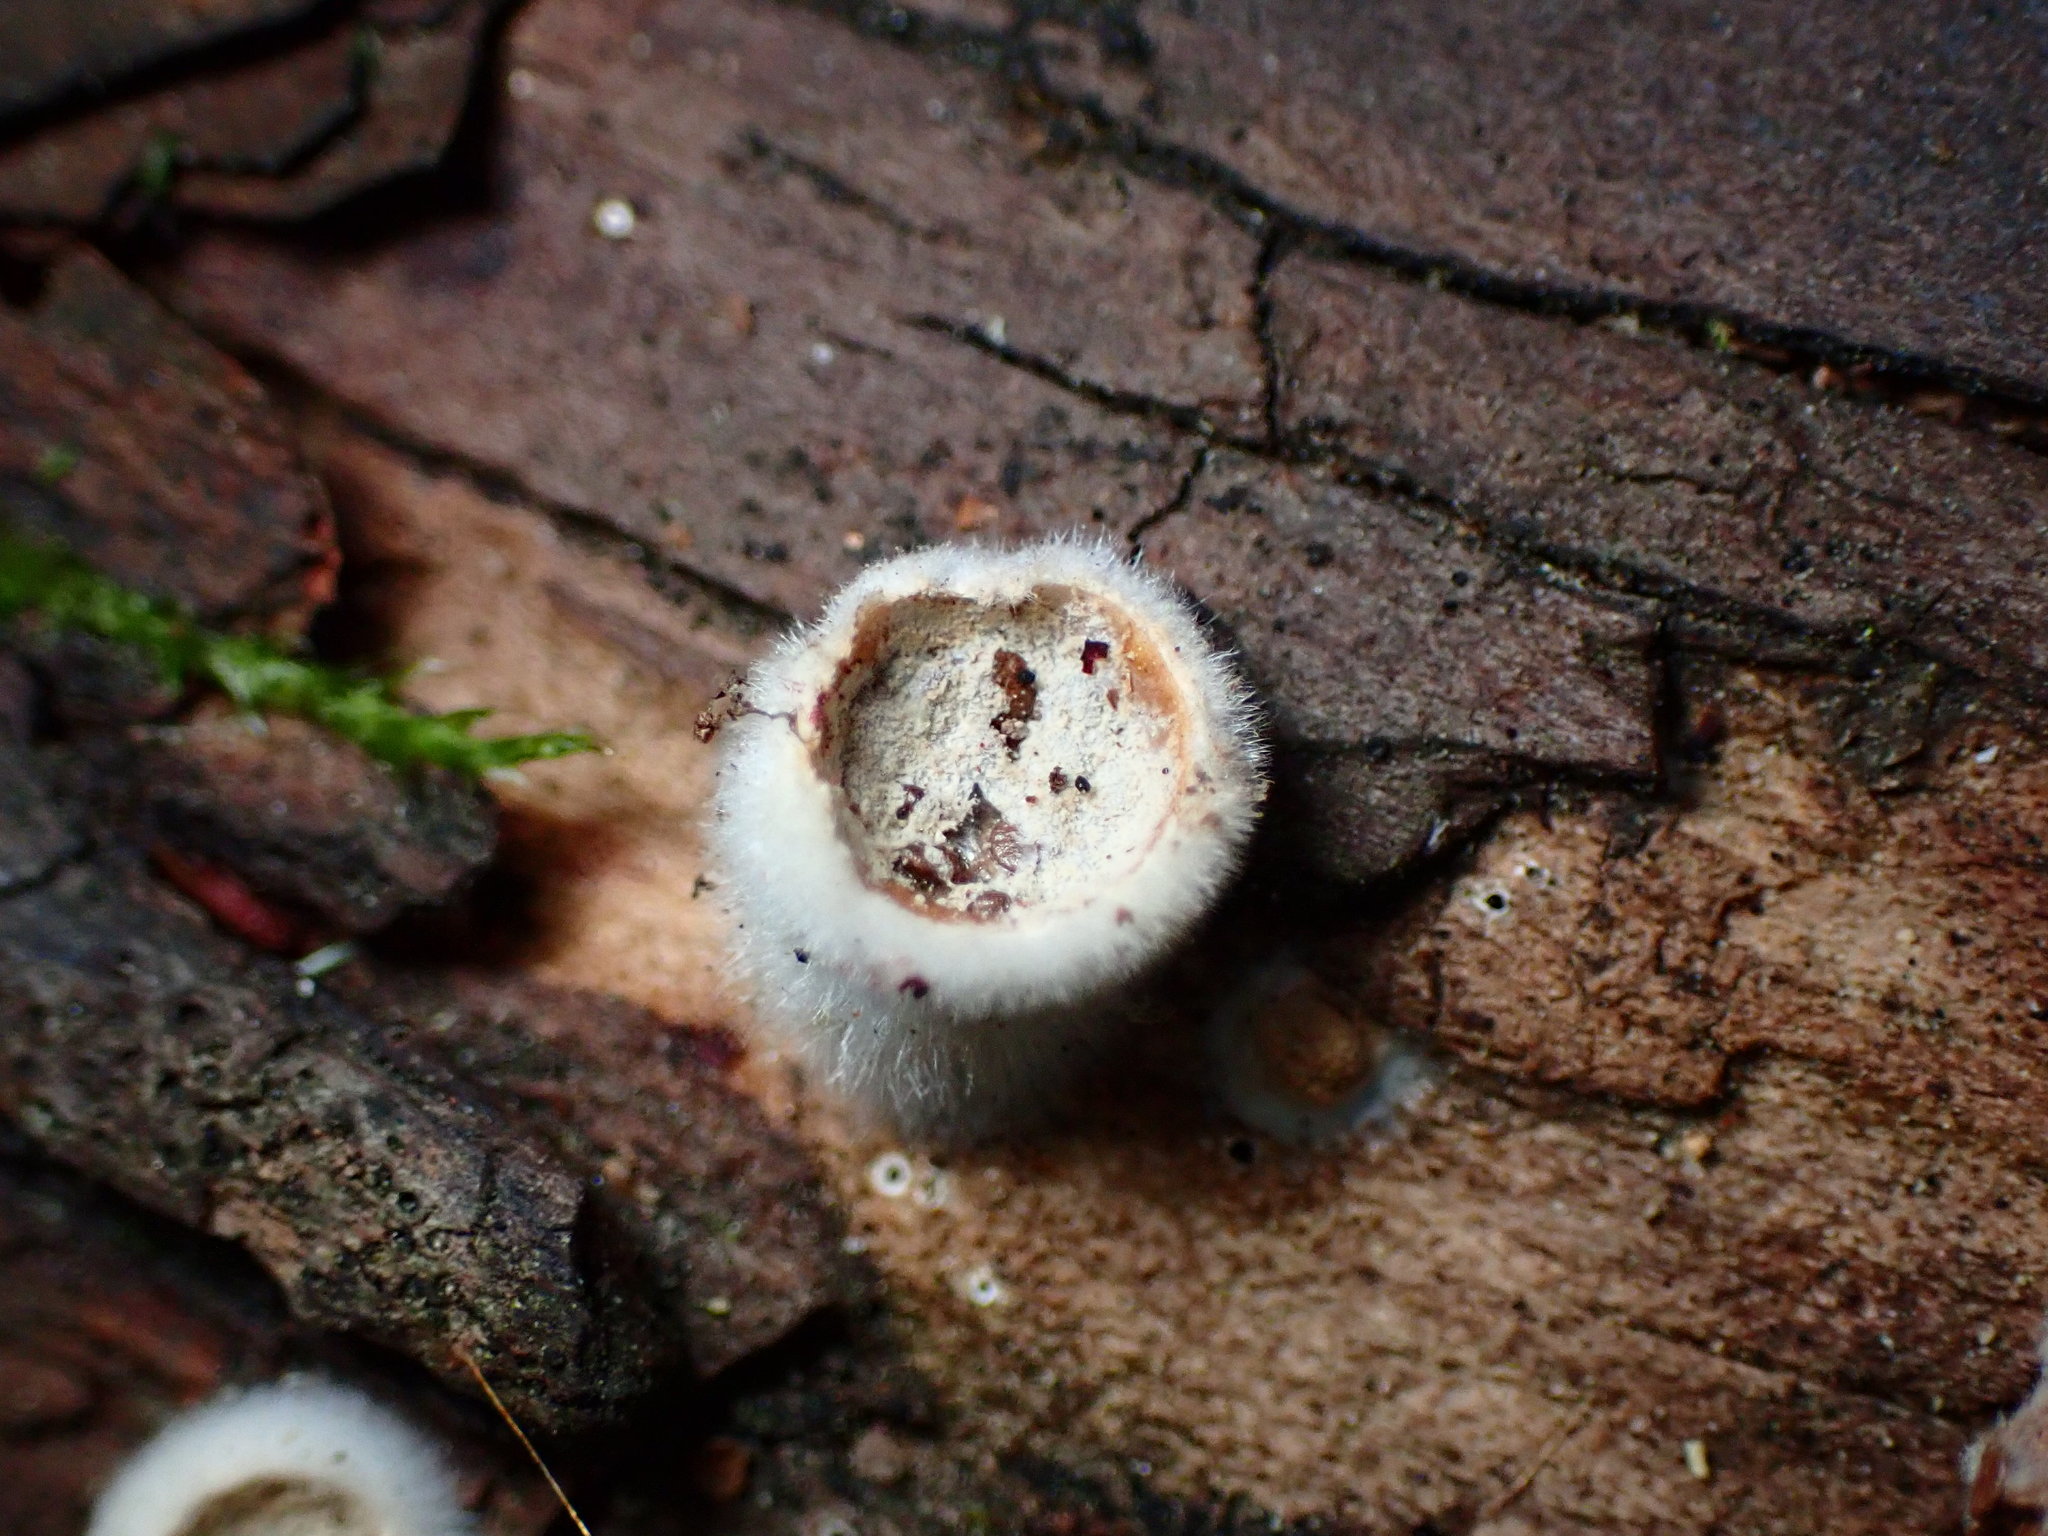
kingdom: Fungi
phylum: Basidiomycota
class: Agaricomycetes
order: Agaricales
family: Agaricaceae
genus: Nidula
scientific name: Nidula niveotomentosa
